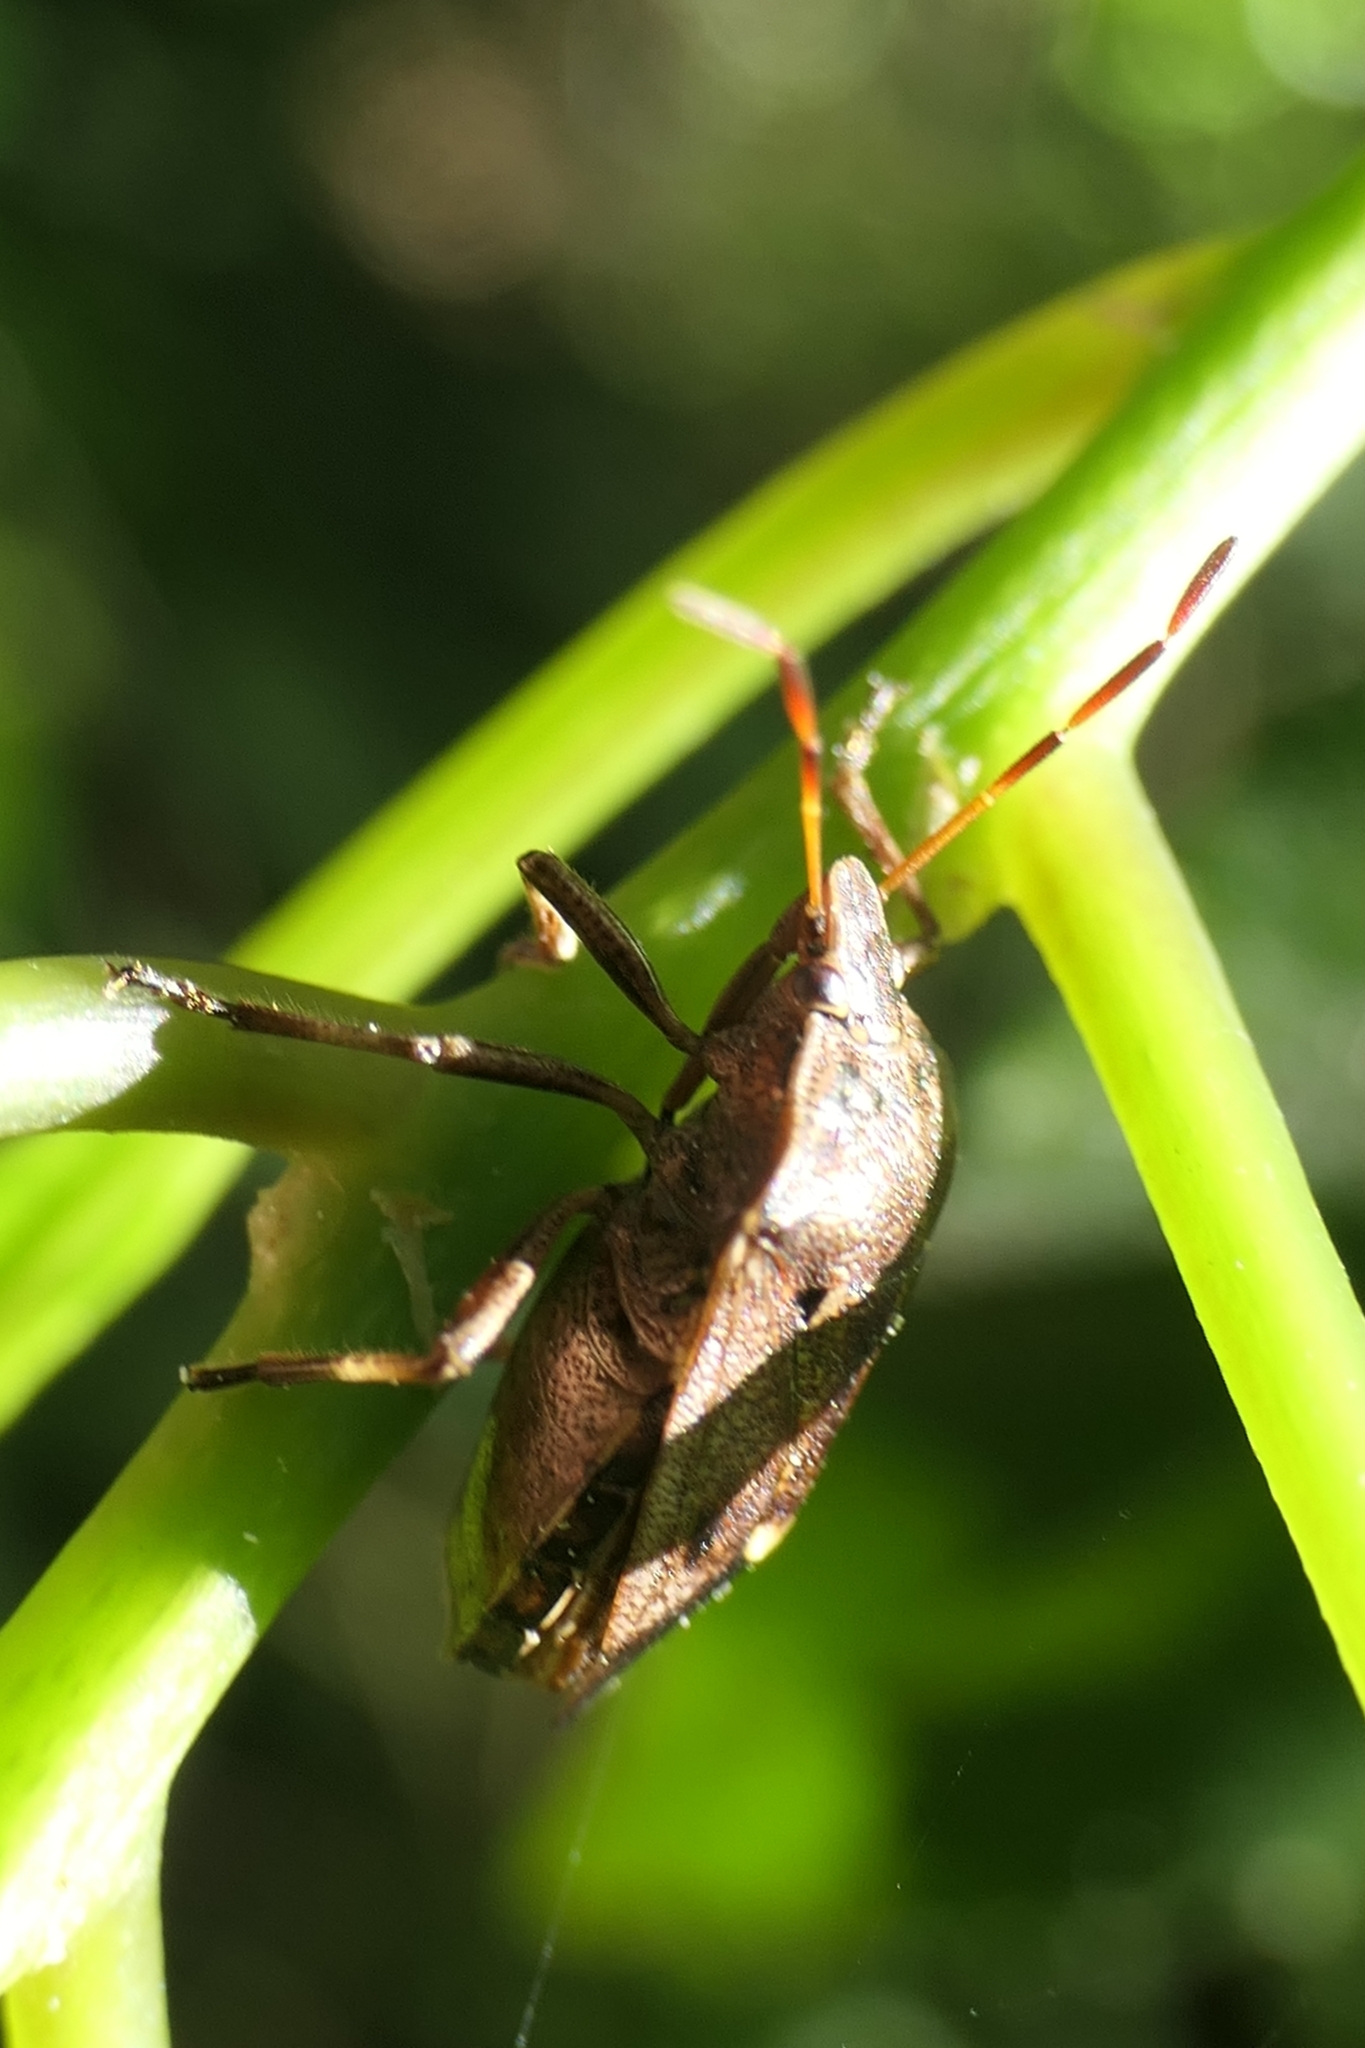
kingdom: Animalia
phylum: Arthropoda
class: Insecta
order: Hemiptera
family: Pentatomidae
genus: Cermatulus
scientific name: Cermatulus nasalis
